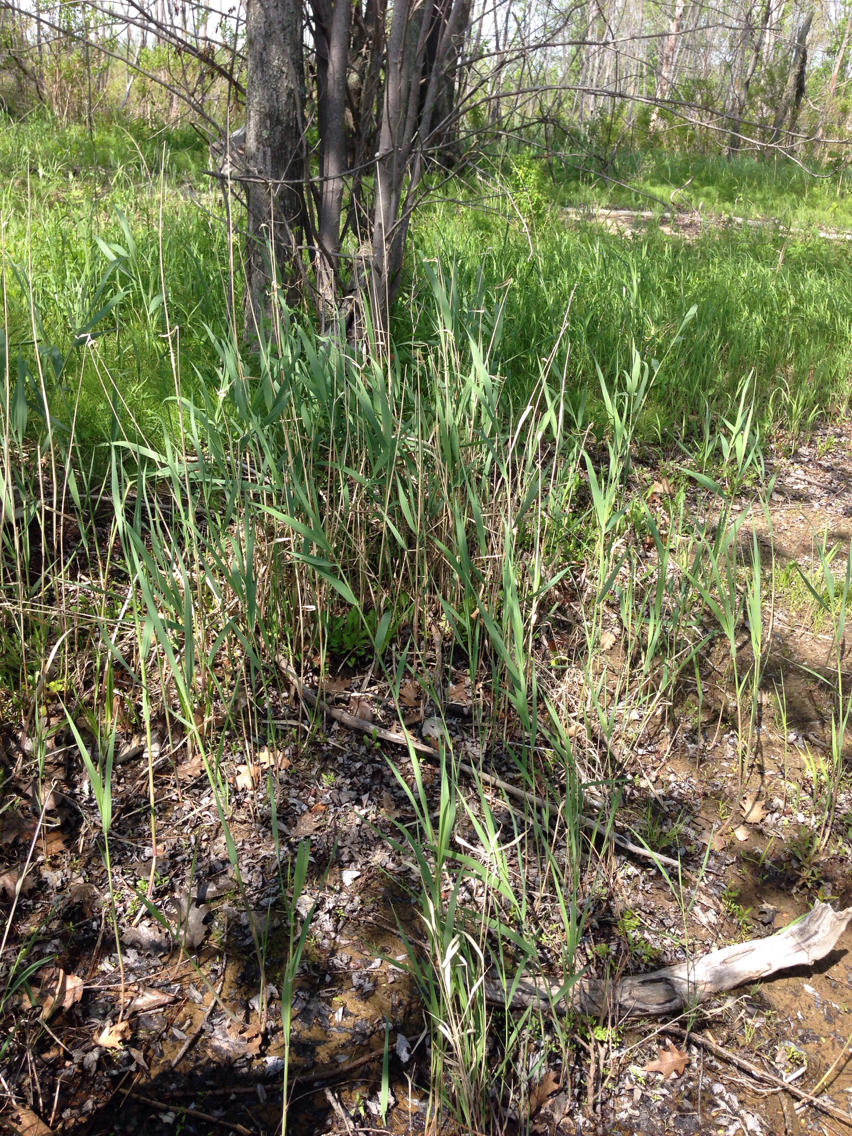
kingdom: Plantae
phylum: Tracheophyta
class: Liliopsida
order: Poales
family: Poaceae
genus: Phragmites
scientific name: Phragmites australis
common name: Common reed
